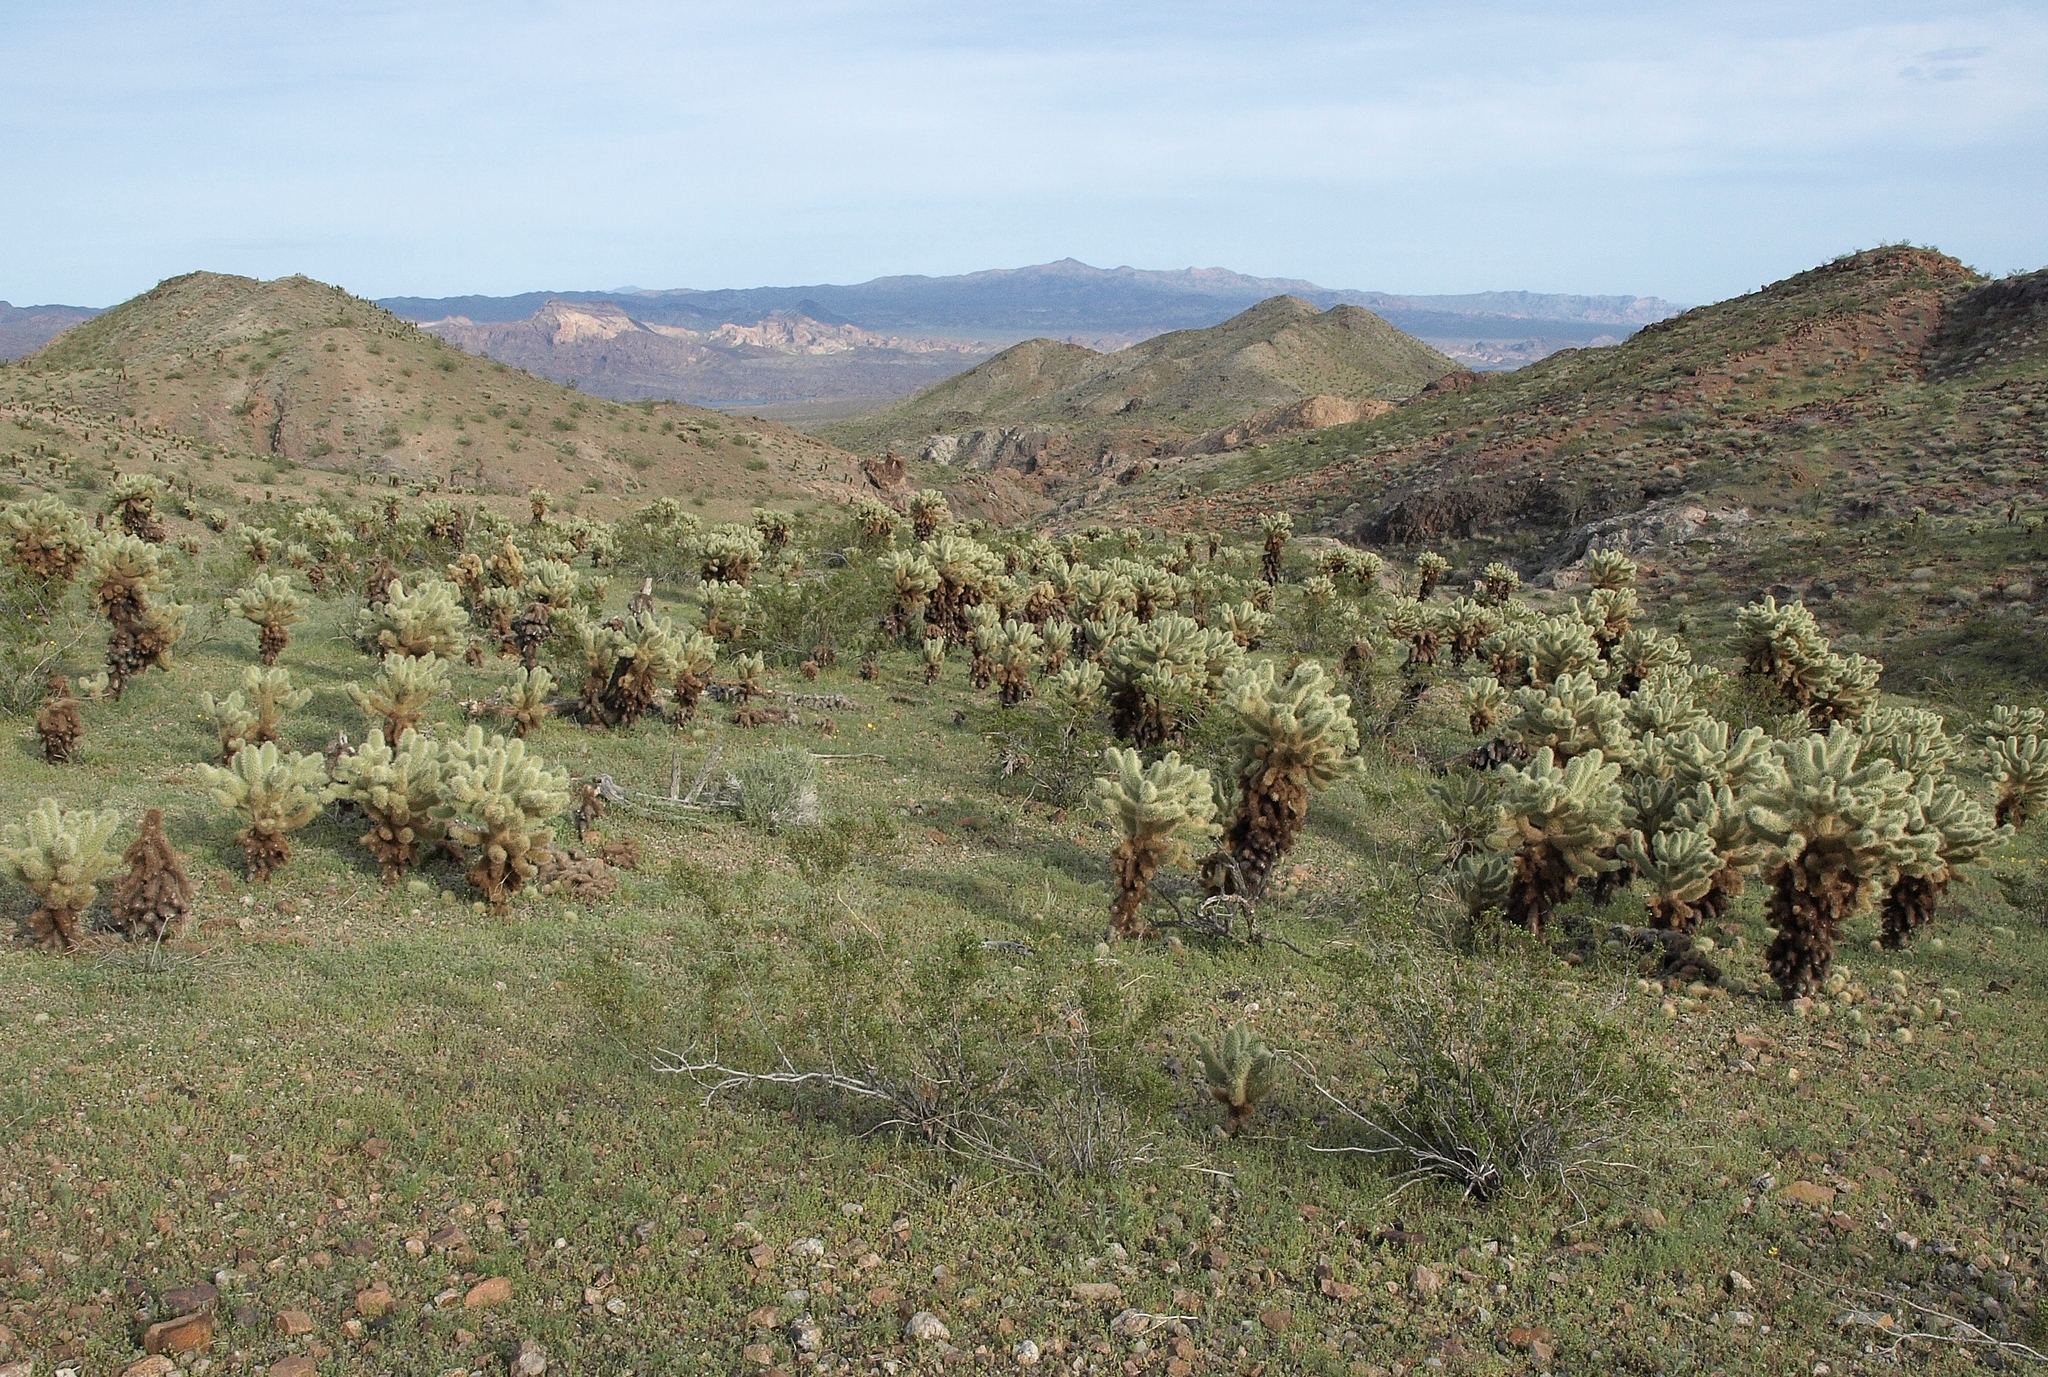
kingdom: Plantae
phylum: Tracheophyta
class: Magnoliopsida
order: Caryophyllales
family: Cactaceae
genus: Cylindropuntia
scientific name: Cylindropuntia fosbergii
